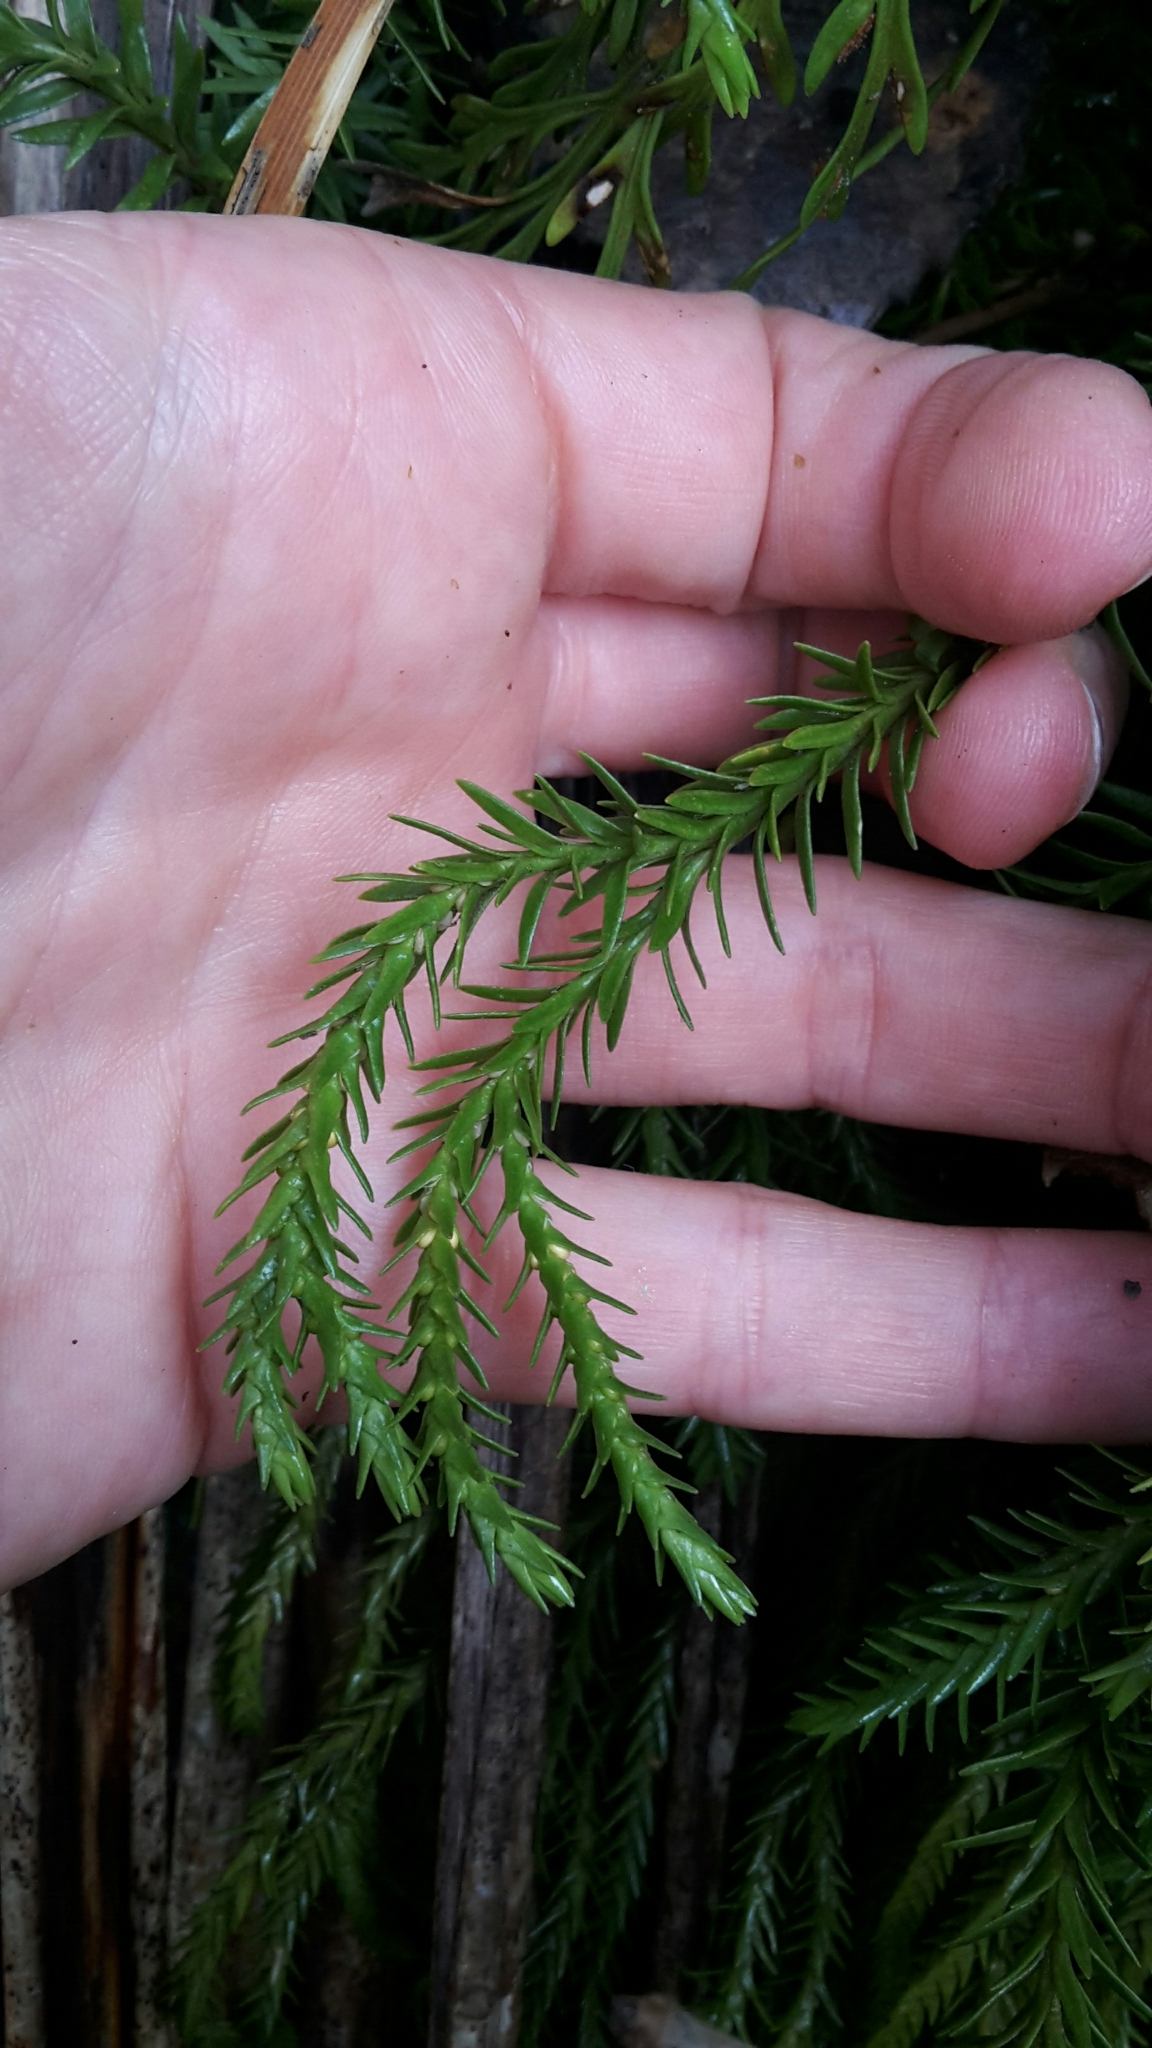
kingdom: Plantae
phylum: Tracheophyta
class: Lycopodiopsida
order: Lycopodiales
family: Lycopodiaceae
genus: Phlegmariurus
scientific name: Phlegmariurus varius
